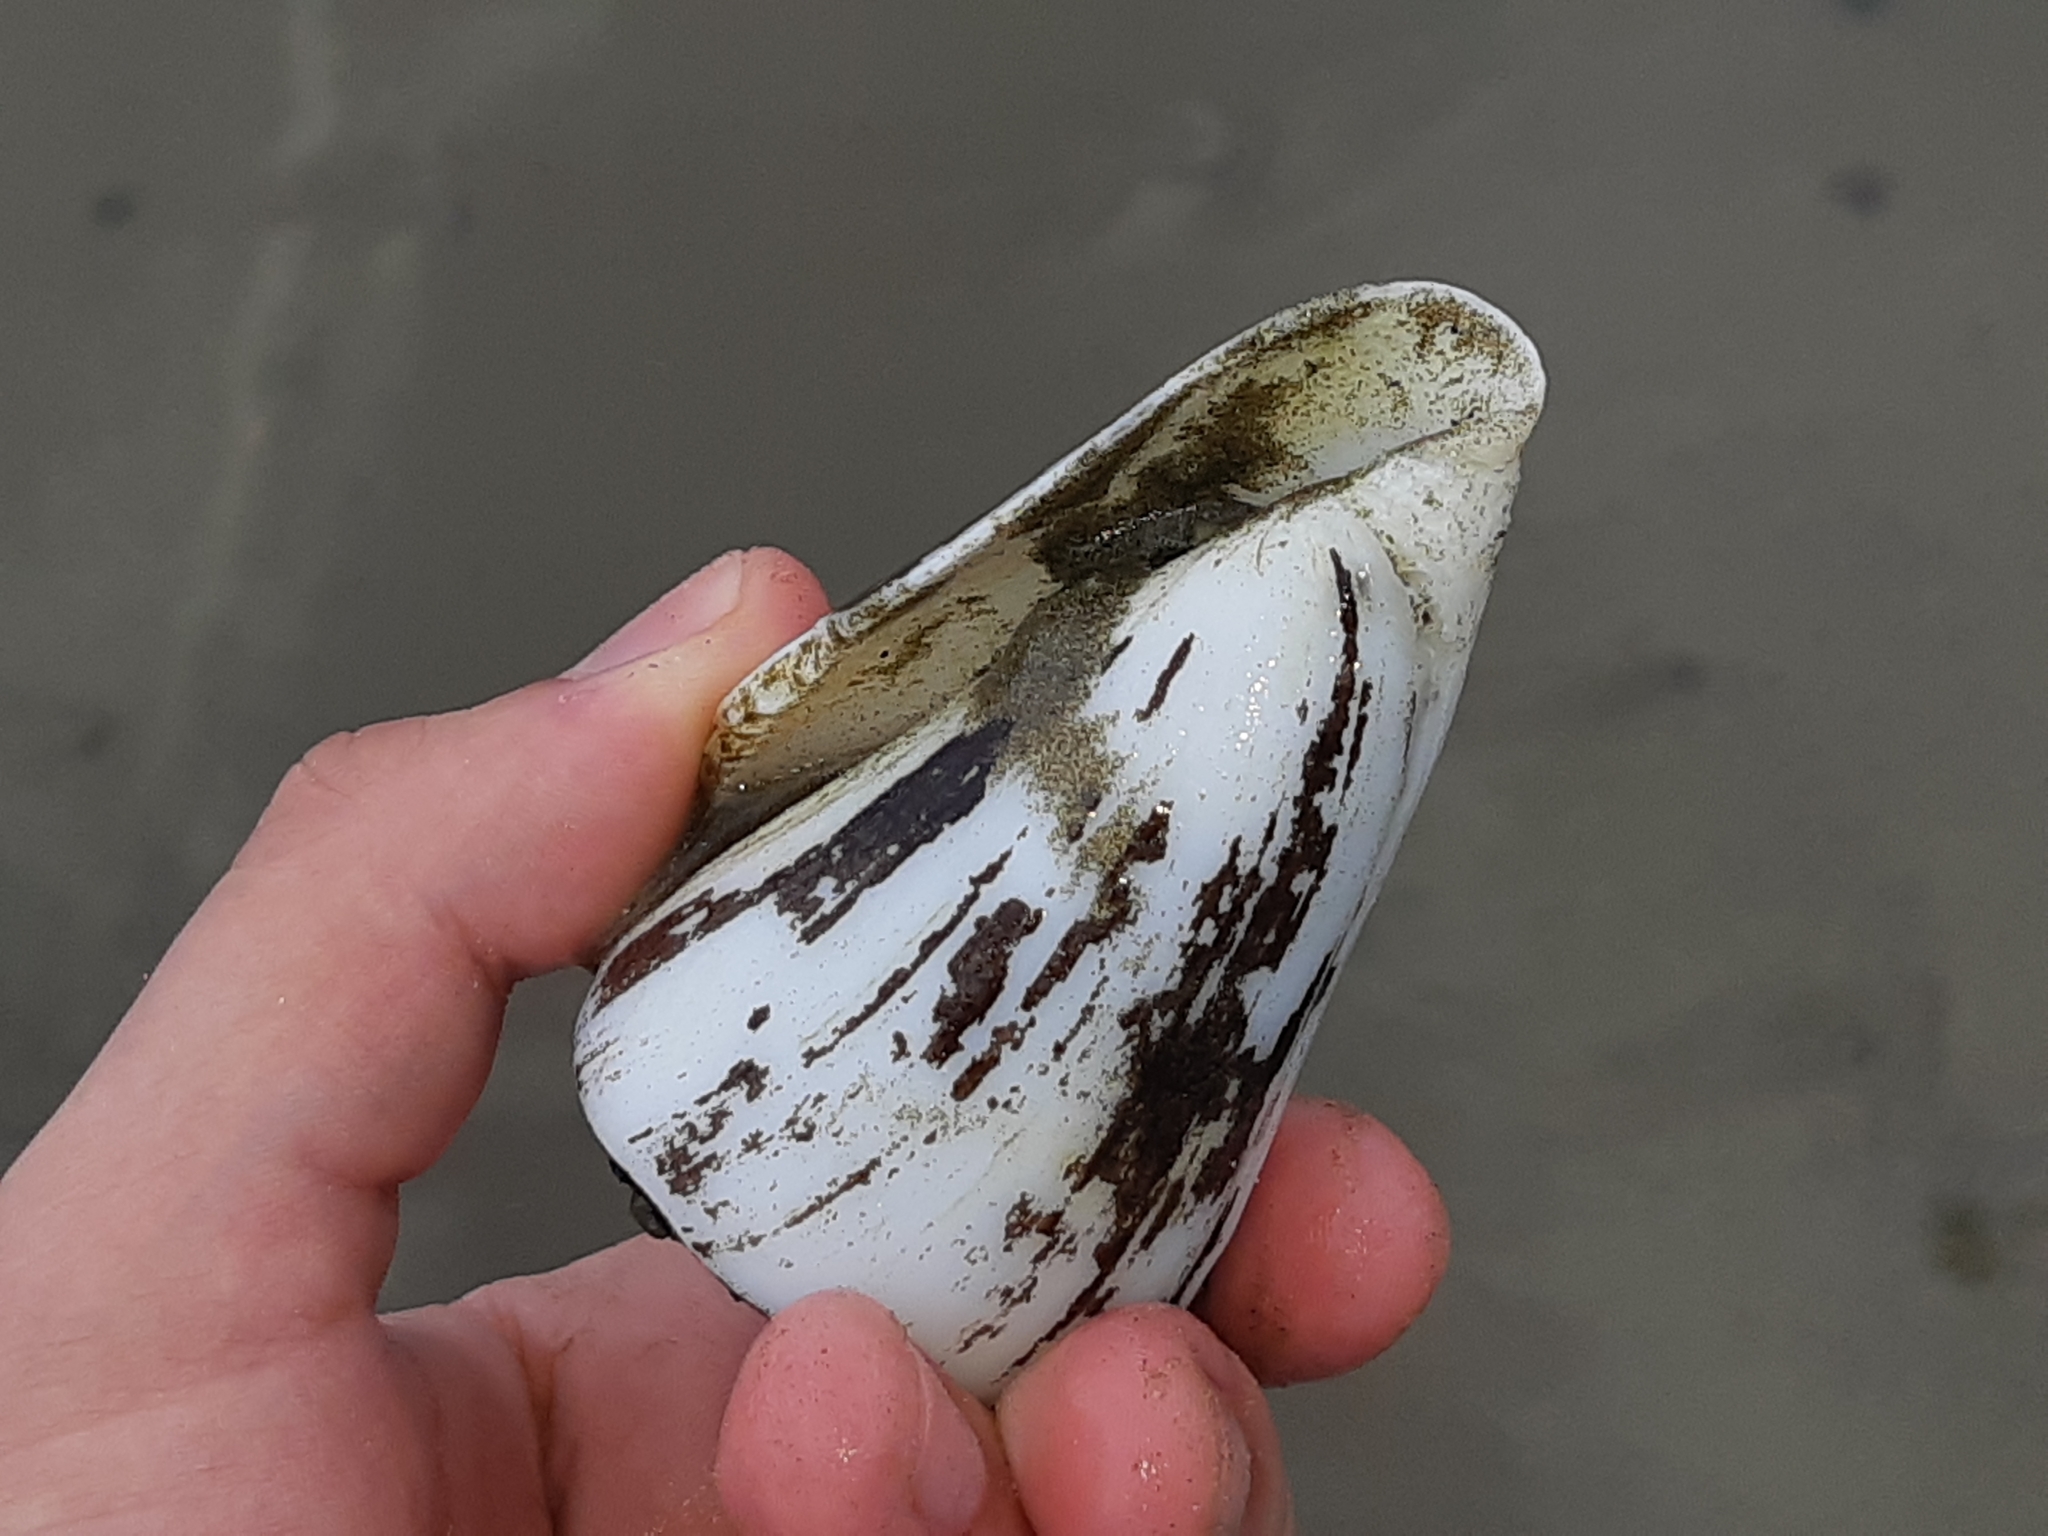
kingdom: Animalia
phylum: Mollusca
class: Gastropoda
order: Neogastropoda
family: Conidae
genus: Conus
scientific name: Conus fergusoni
